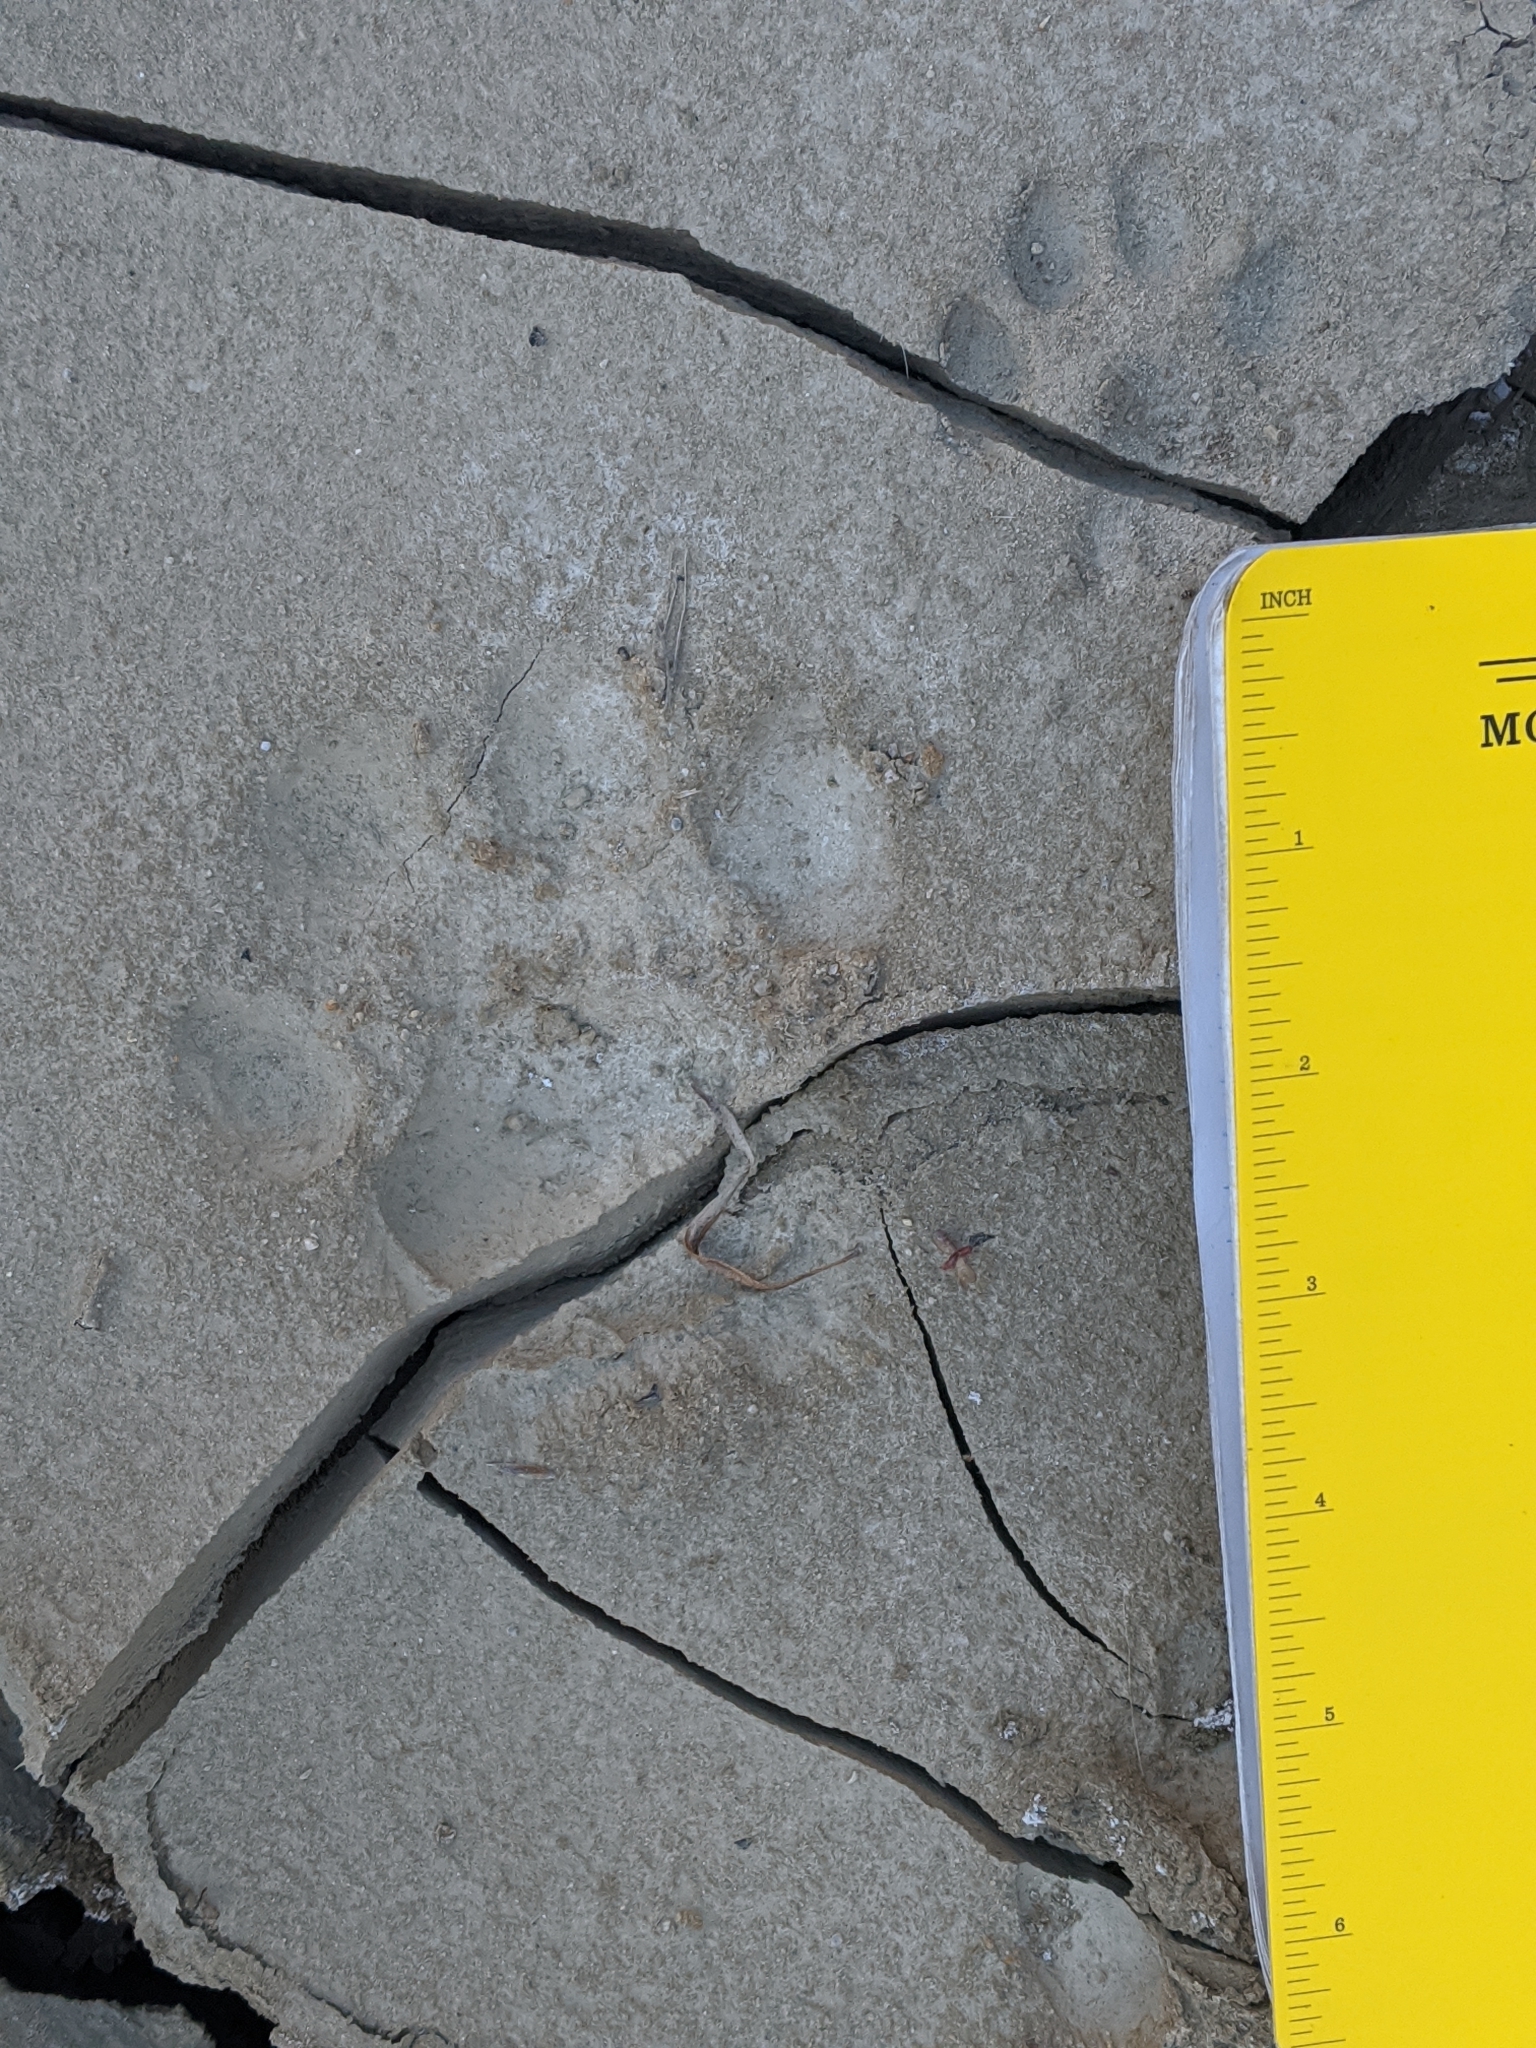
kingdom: Animalia
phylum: Chordata
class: Mammalia
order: Carnivora
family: Felidae
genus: Puma
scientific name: Puma concolor
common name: Puma
